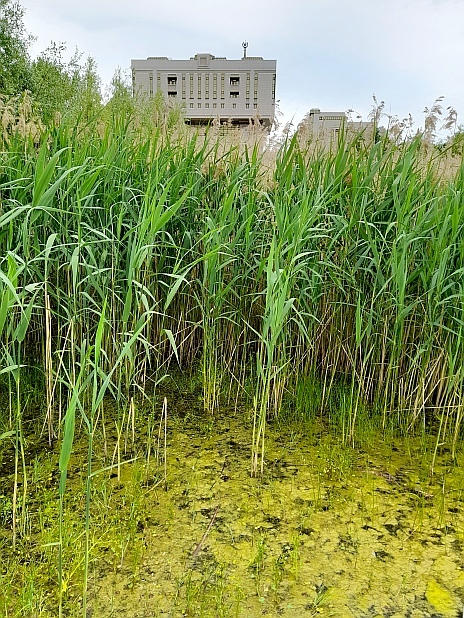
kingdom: Plantae
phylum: Tracheophyta
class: Liliopsida
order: Poales
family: Poaceae
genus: Phragmites
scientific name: Phragmites australis
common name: Common reed
